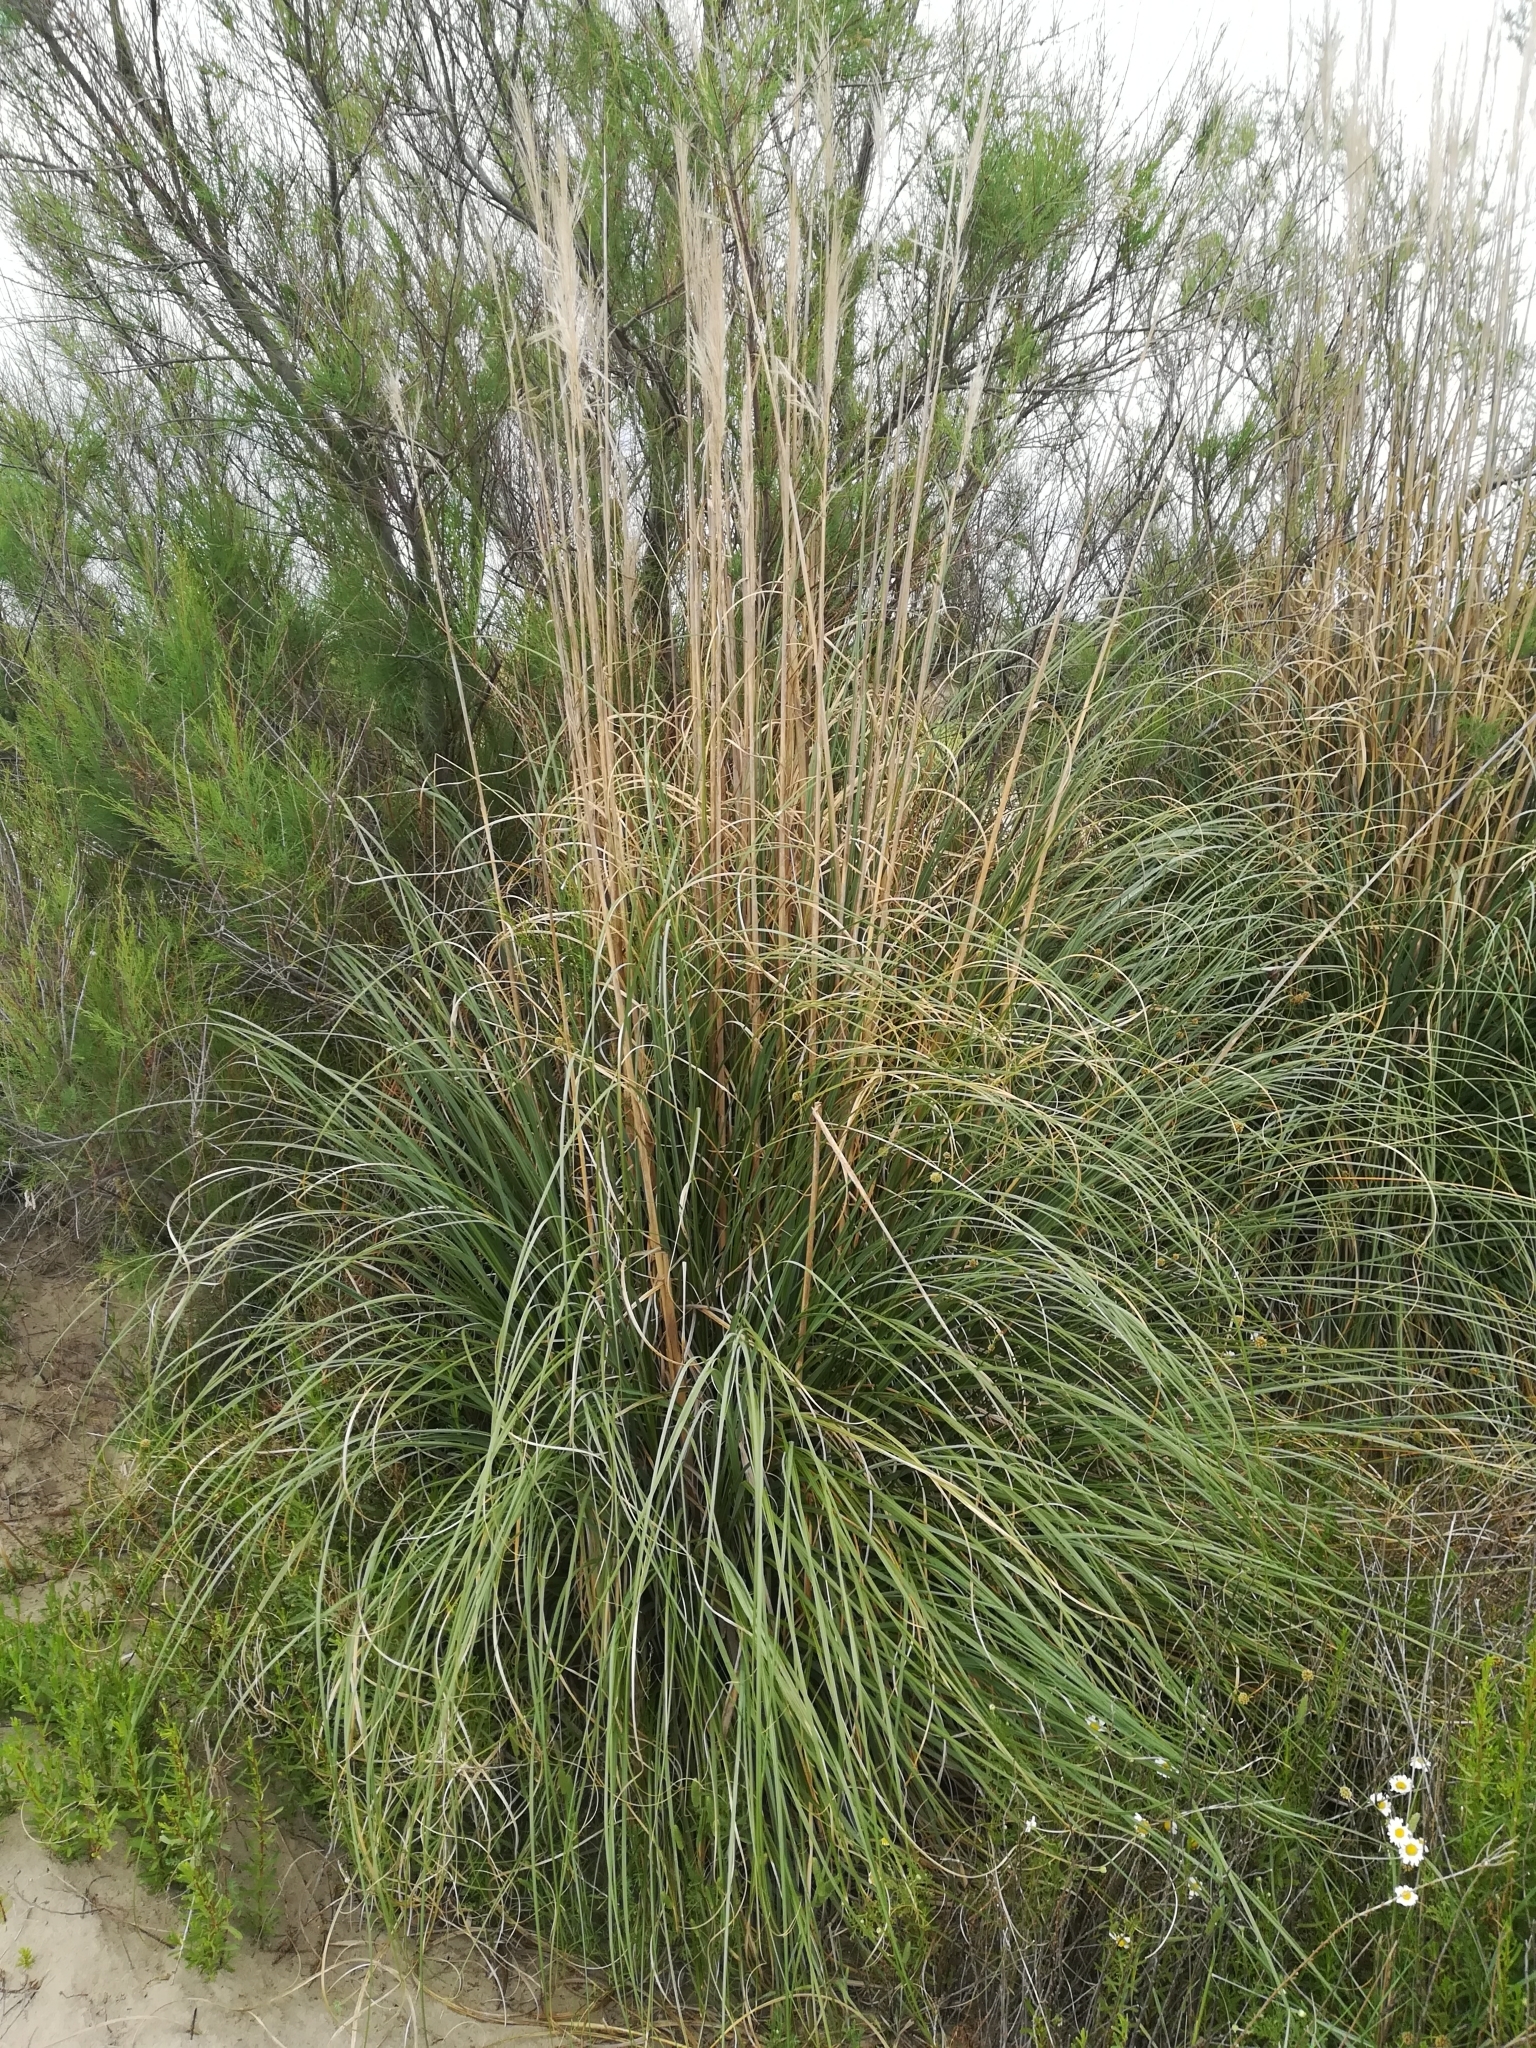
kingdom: Plantae
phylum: Tracheophyta
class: Liliopsida
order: Poales
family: Poaceae
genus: Cortaderia
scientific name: Cortaderia selloana
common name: Uruguayan pampas grass
